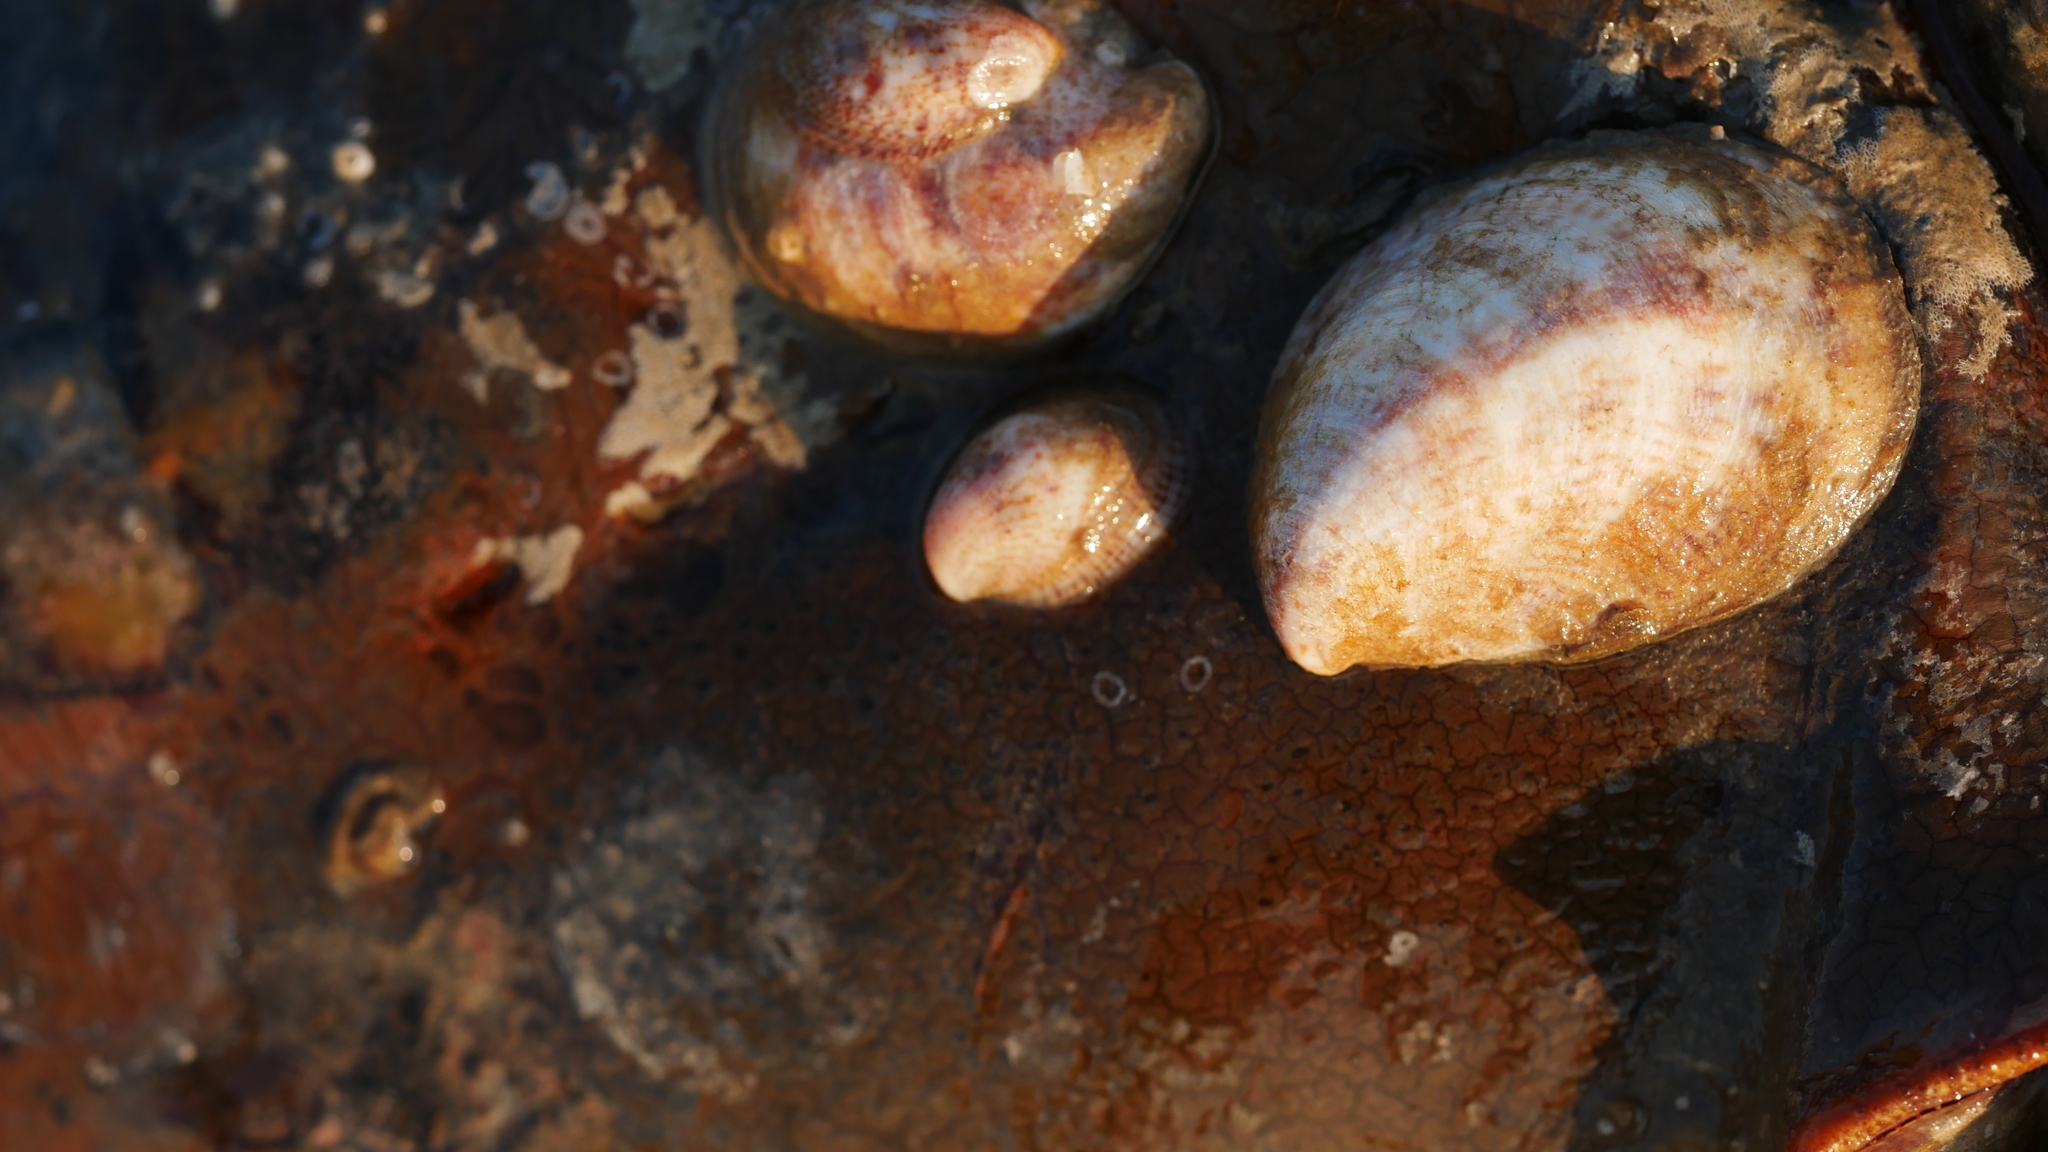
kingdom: Animalia
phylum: Mollusca
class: Gastropoda
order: Littorinimorpha
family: Calyptraeidae
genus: Crepidula
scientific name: Crepidula fornicata
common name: Slipper limpet
